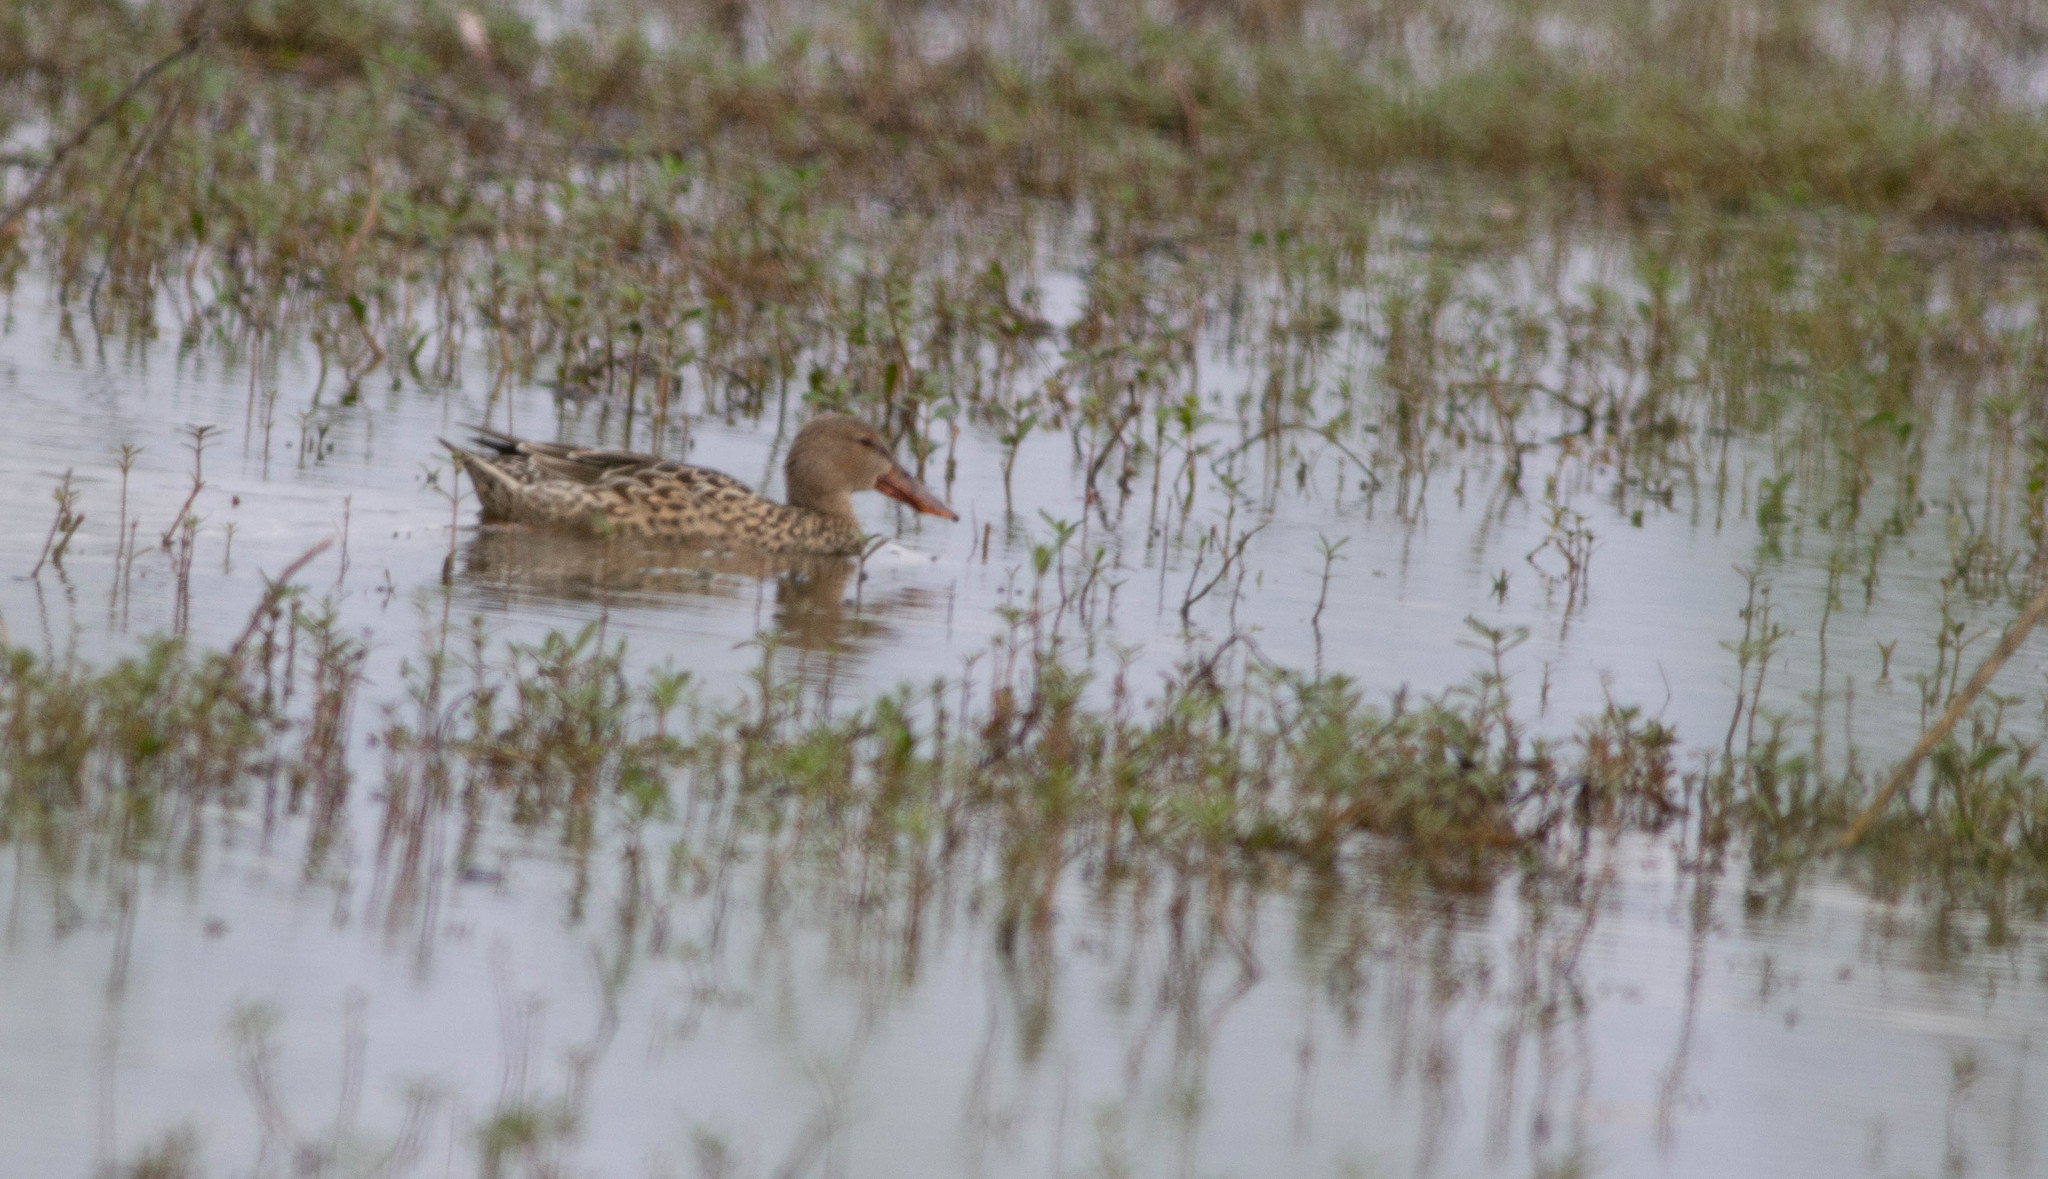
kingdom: Animalia
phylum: Chordata
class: Aves
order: Anseriformes
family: Anatidae
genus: Spatula
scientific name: Spatula clypeata
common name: Northern shoveler
